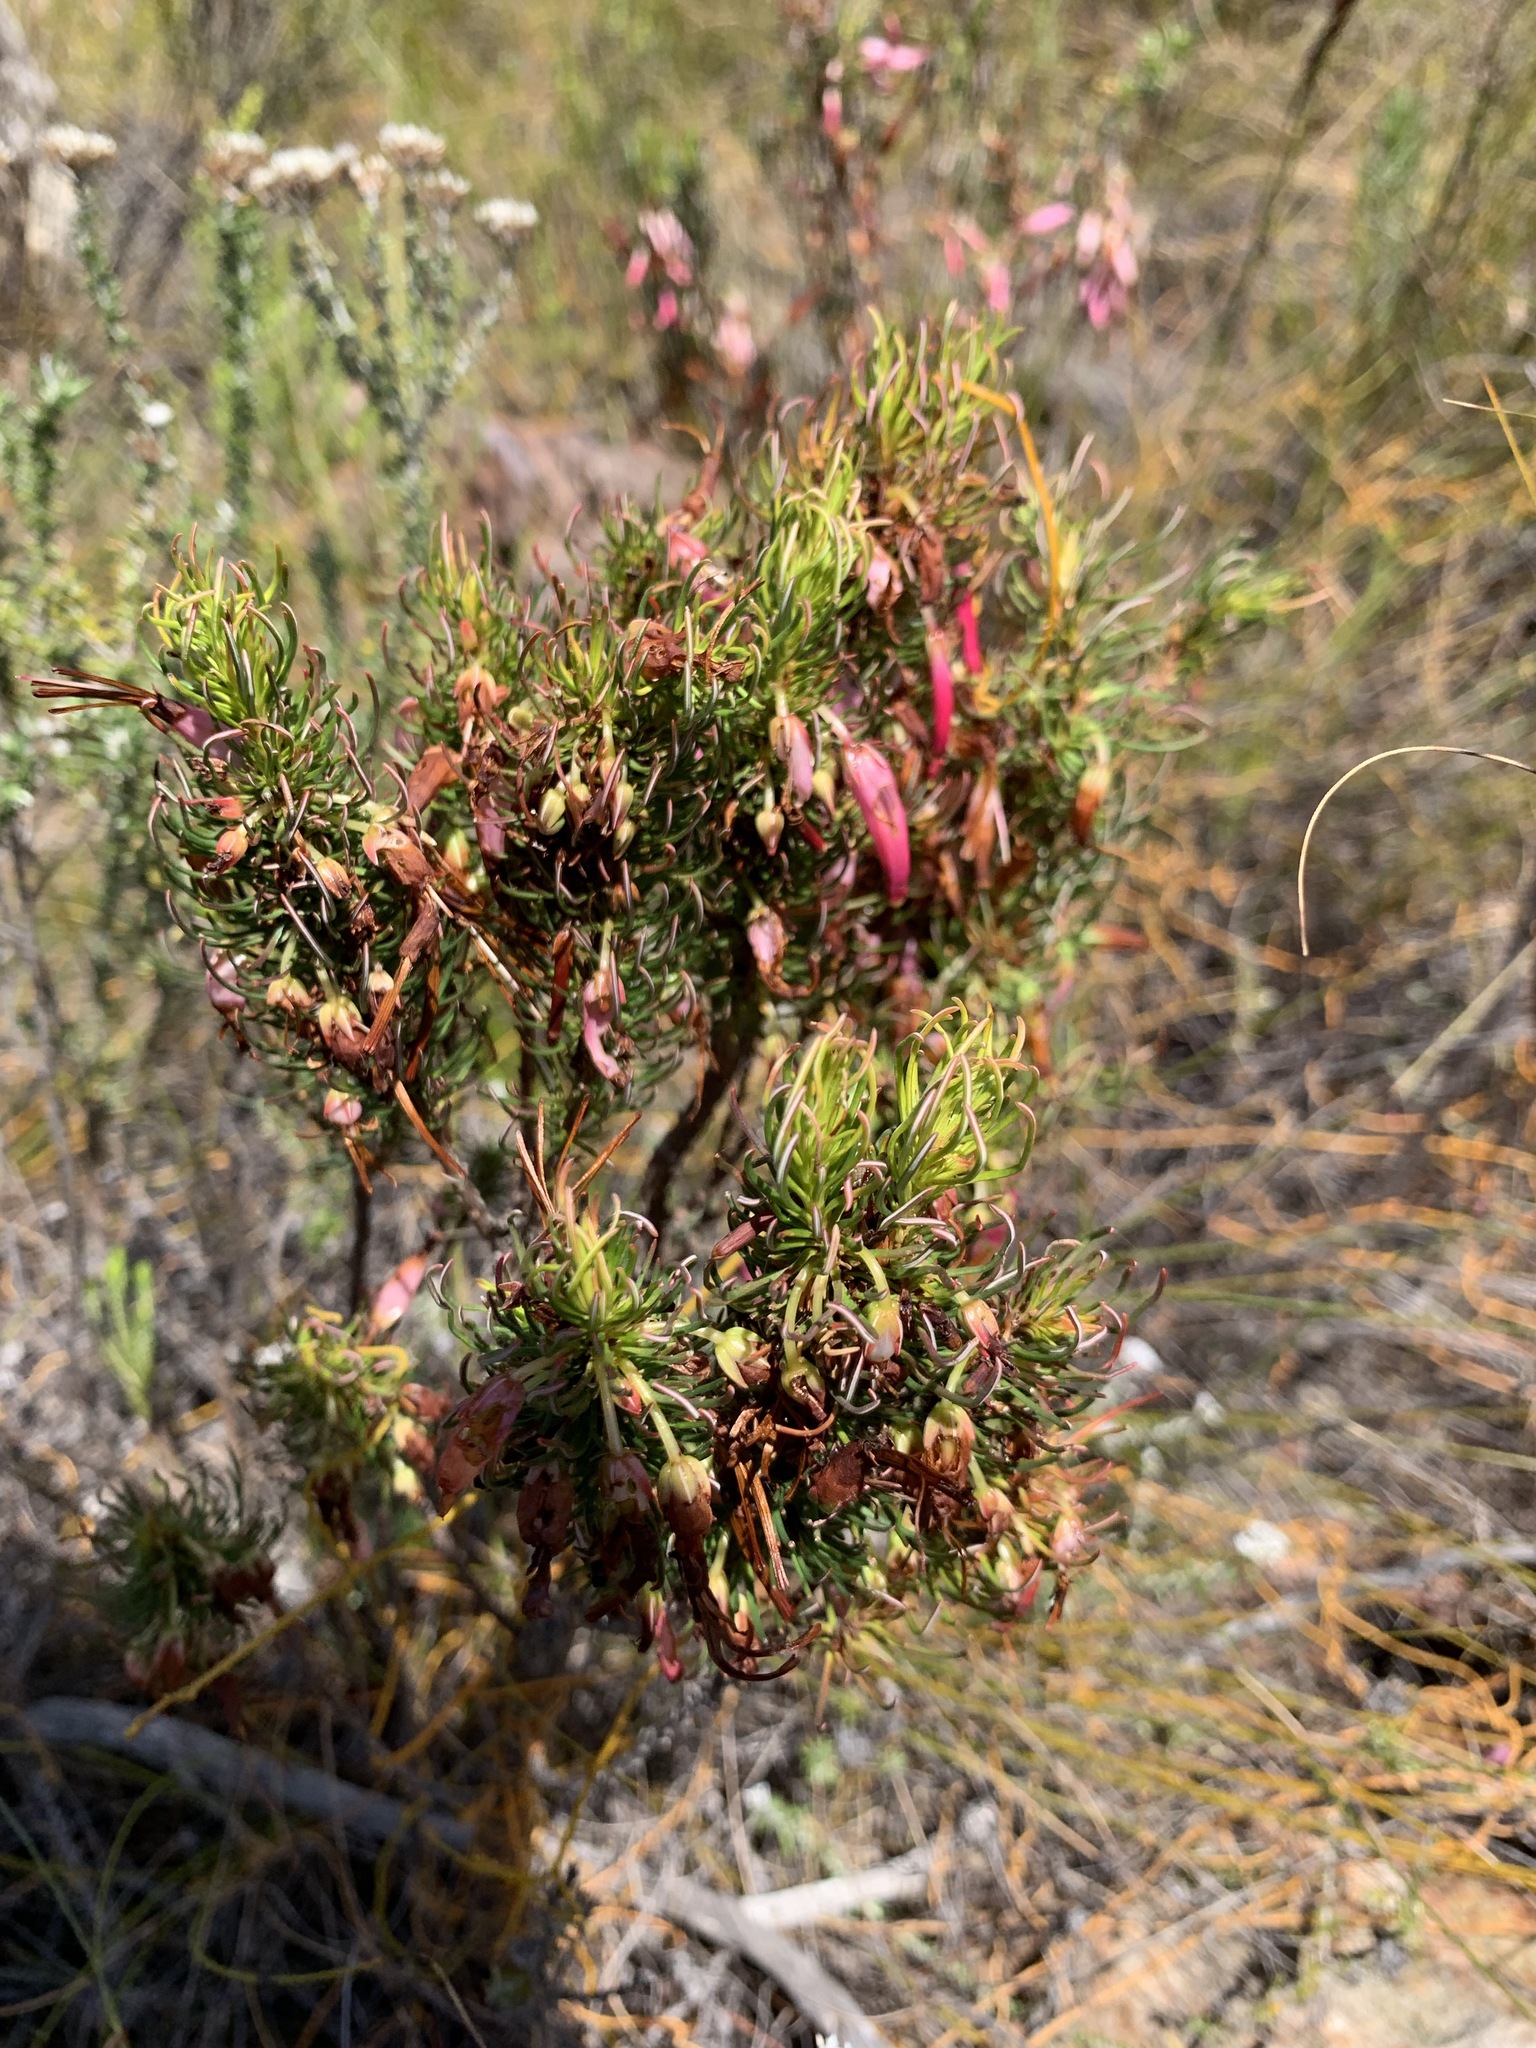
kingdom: Plantae
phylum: Tracheophyta
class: Magnoliopsida
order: Ericales
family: Ericaceae
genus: Erica
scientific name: Erica plukenetii
